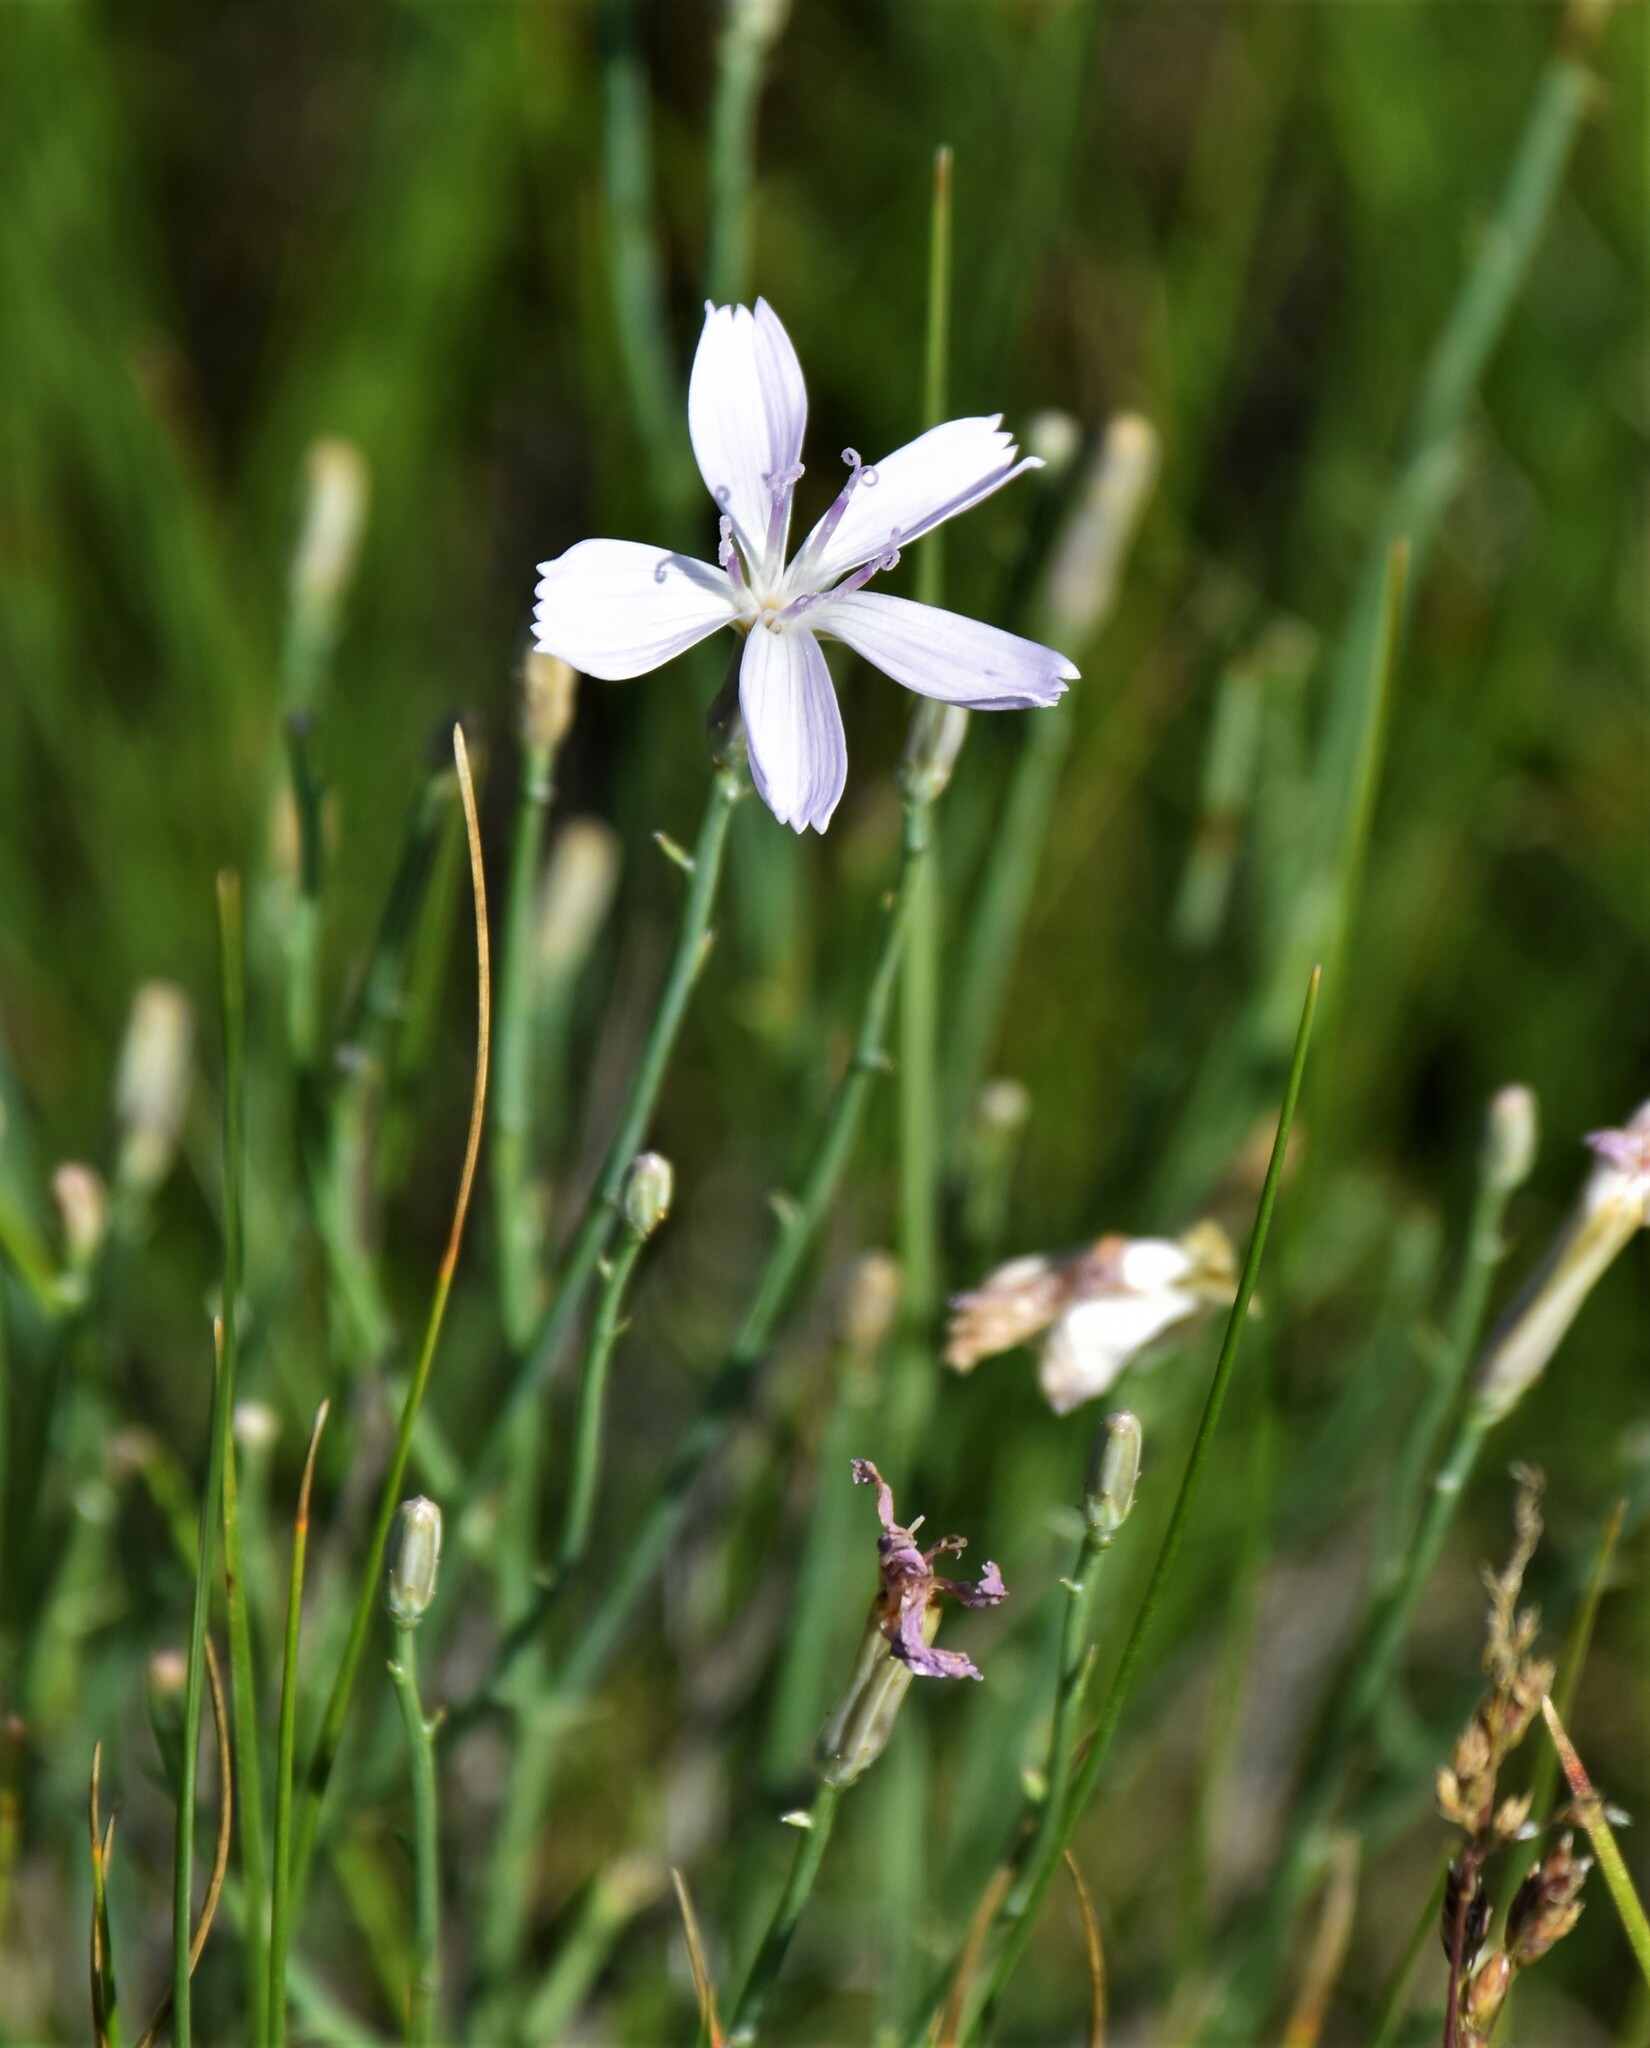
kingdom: Plantae
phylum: Tracheophyta
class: Magnoliopsida
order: Asterales
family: Asteraceae
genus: Lygodesmia
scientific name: Lygodesmia juncea
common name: Common skeletonweed
